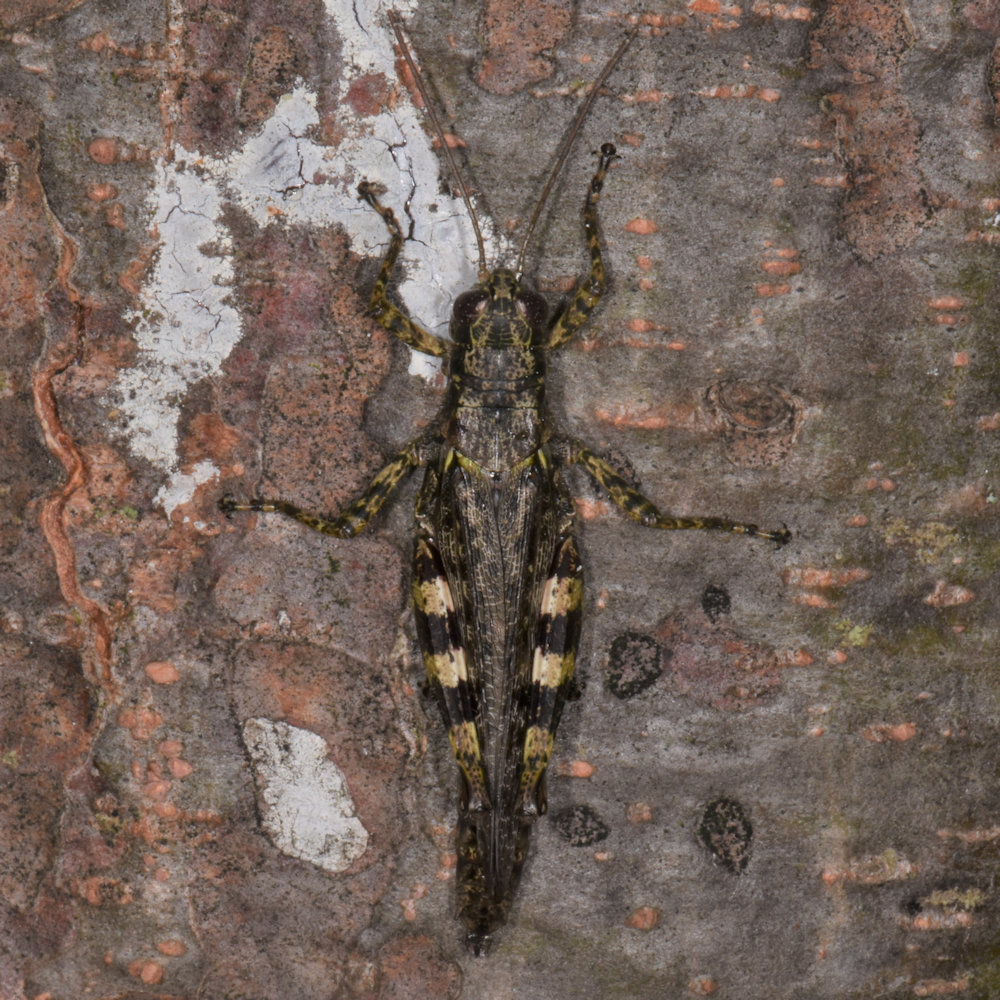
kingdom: Animalia
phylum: Arthropoda
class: Insecta
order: Orthoptera
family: Acrididae
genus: Melanoplus
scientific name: Melanoplus punctulatus
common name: Pine-tree spur-throat grasshopper
